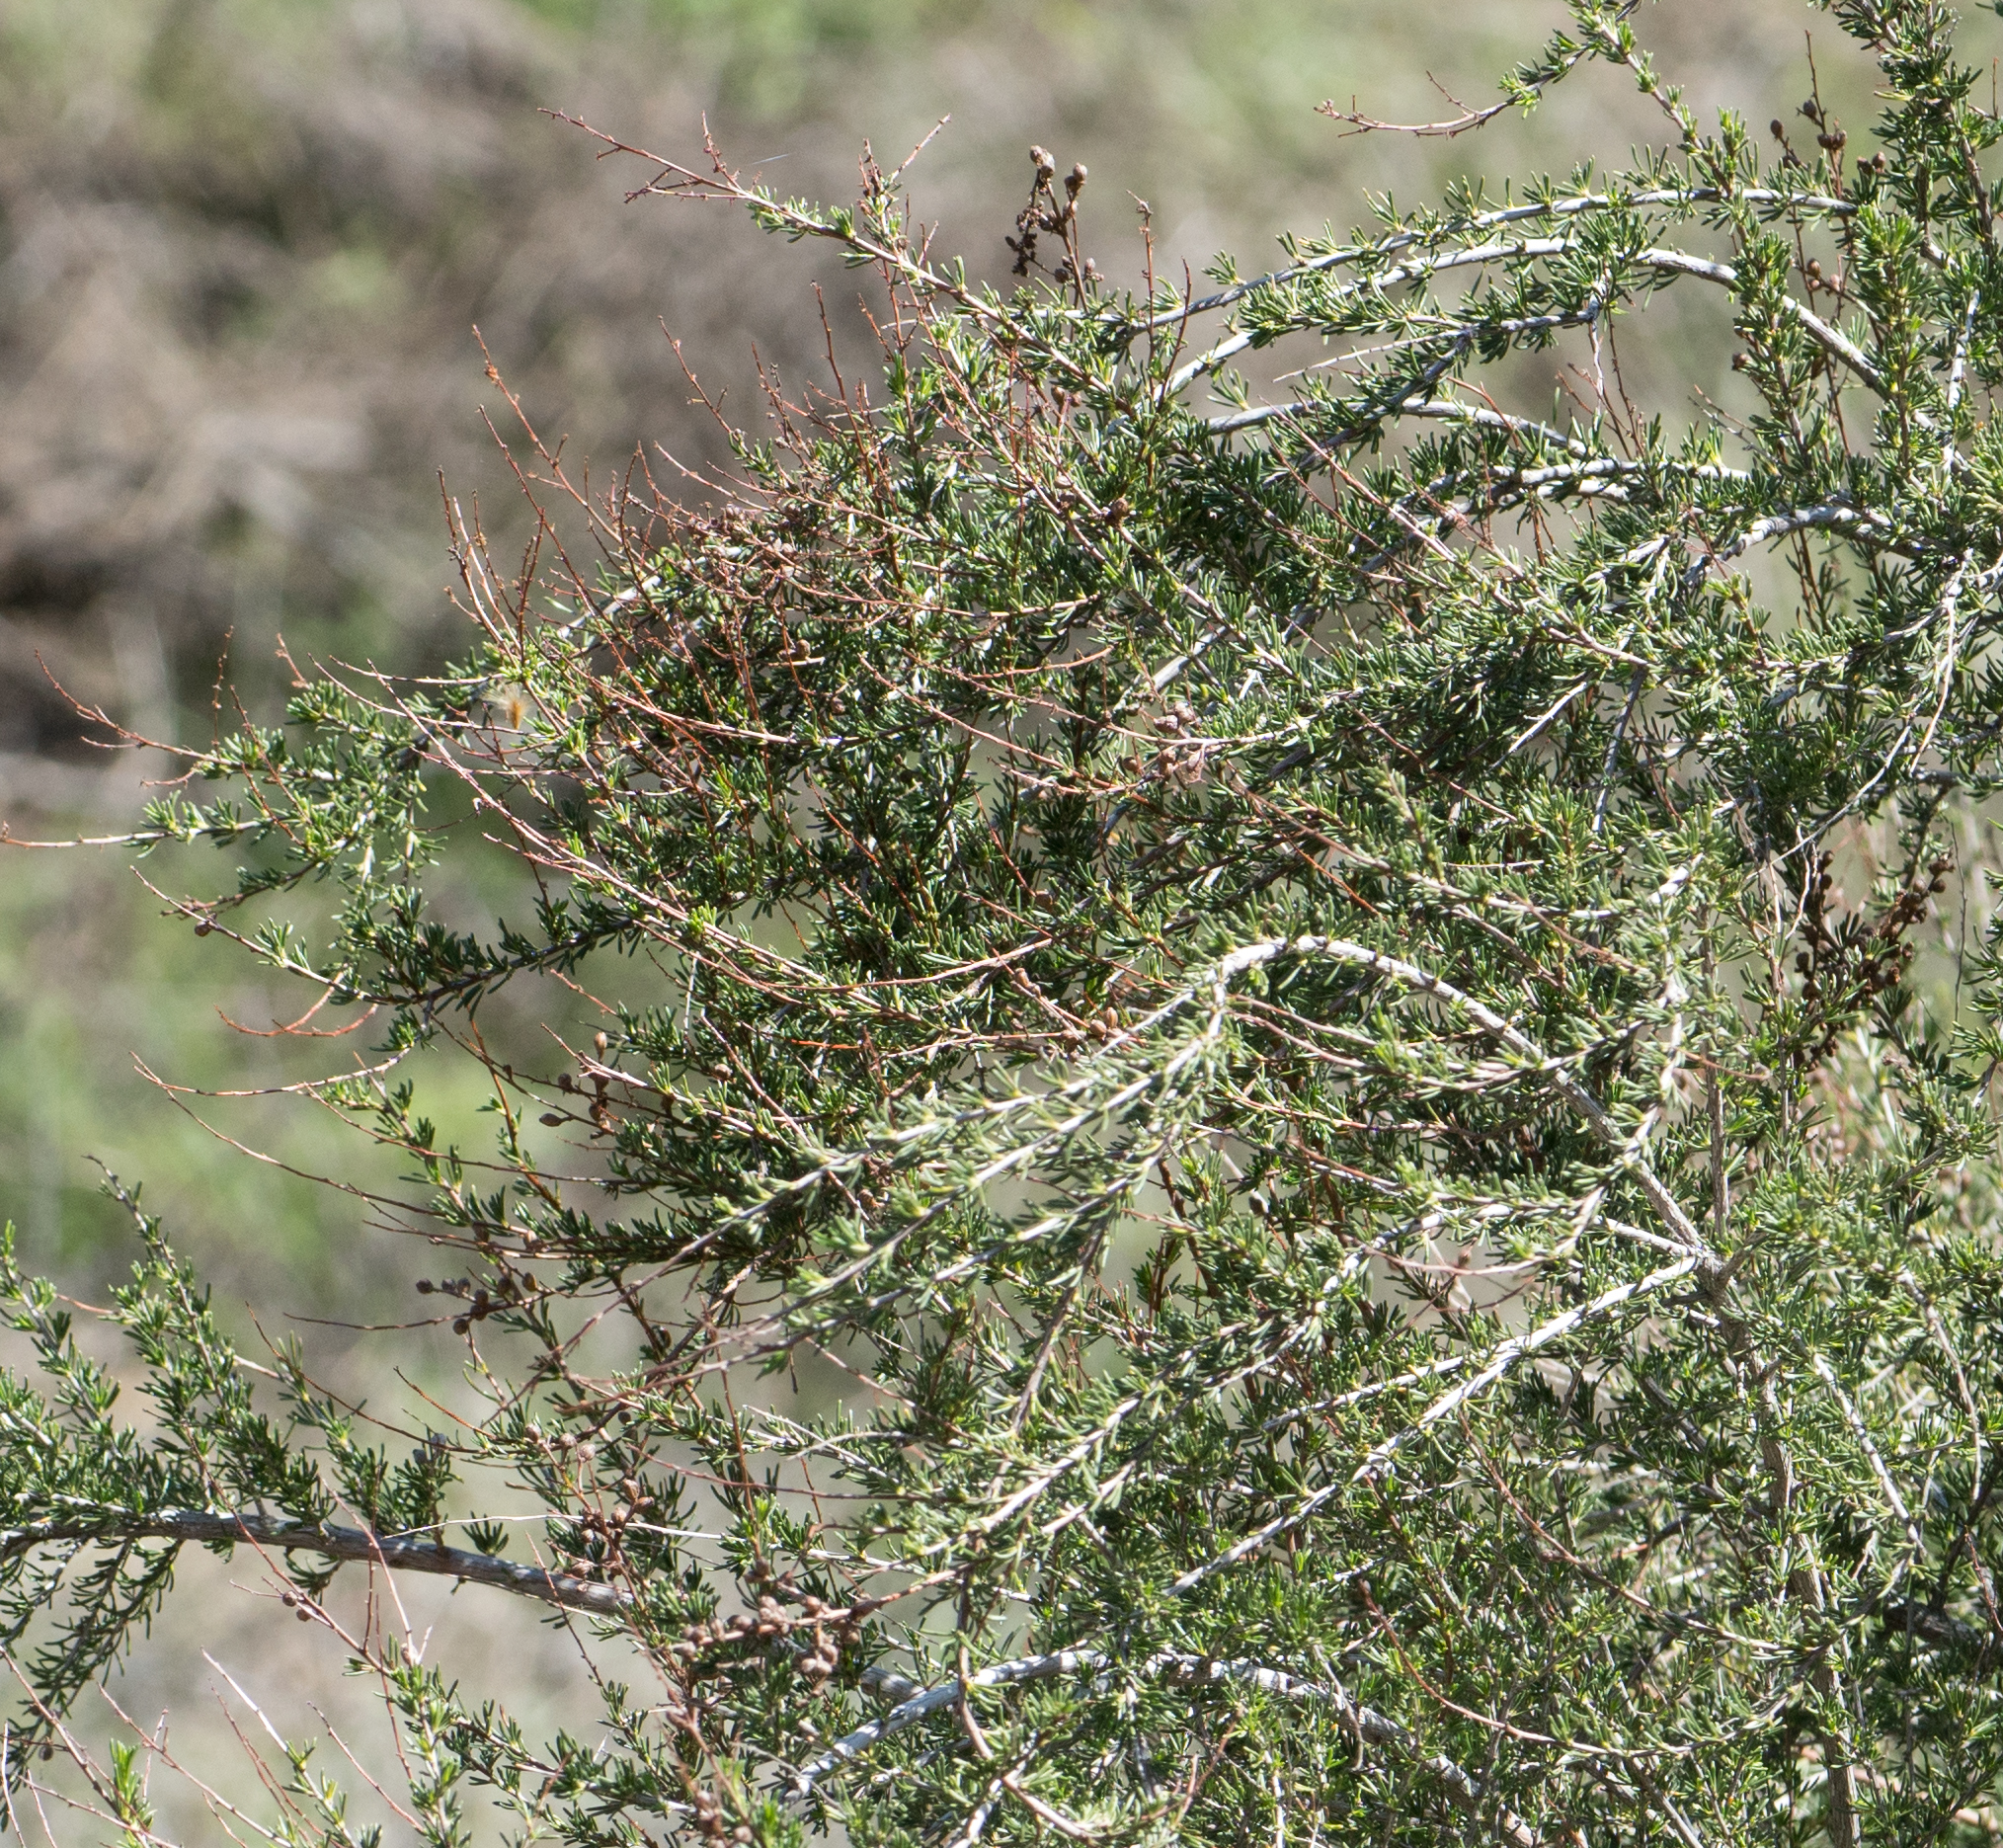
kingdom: Plantae
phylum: Tracheophyta
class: Magnoliopsida
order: Rosales
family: Rosaceae
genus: Adenostoma
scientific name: Adenostoma fasciculatum
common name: Chamise
